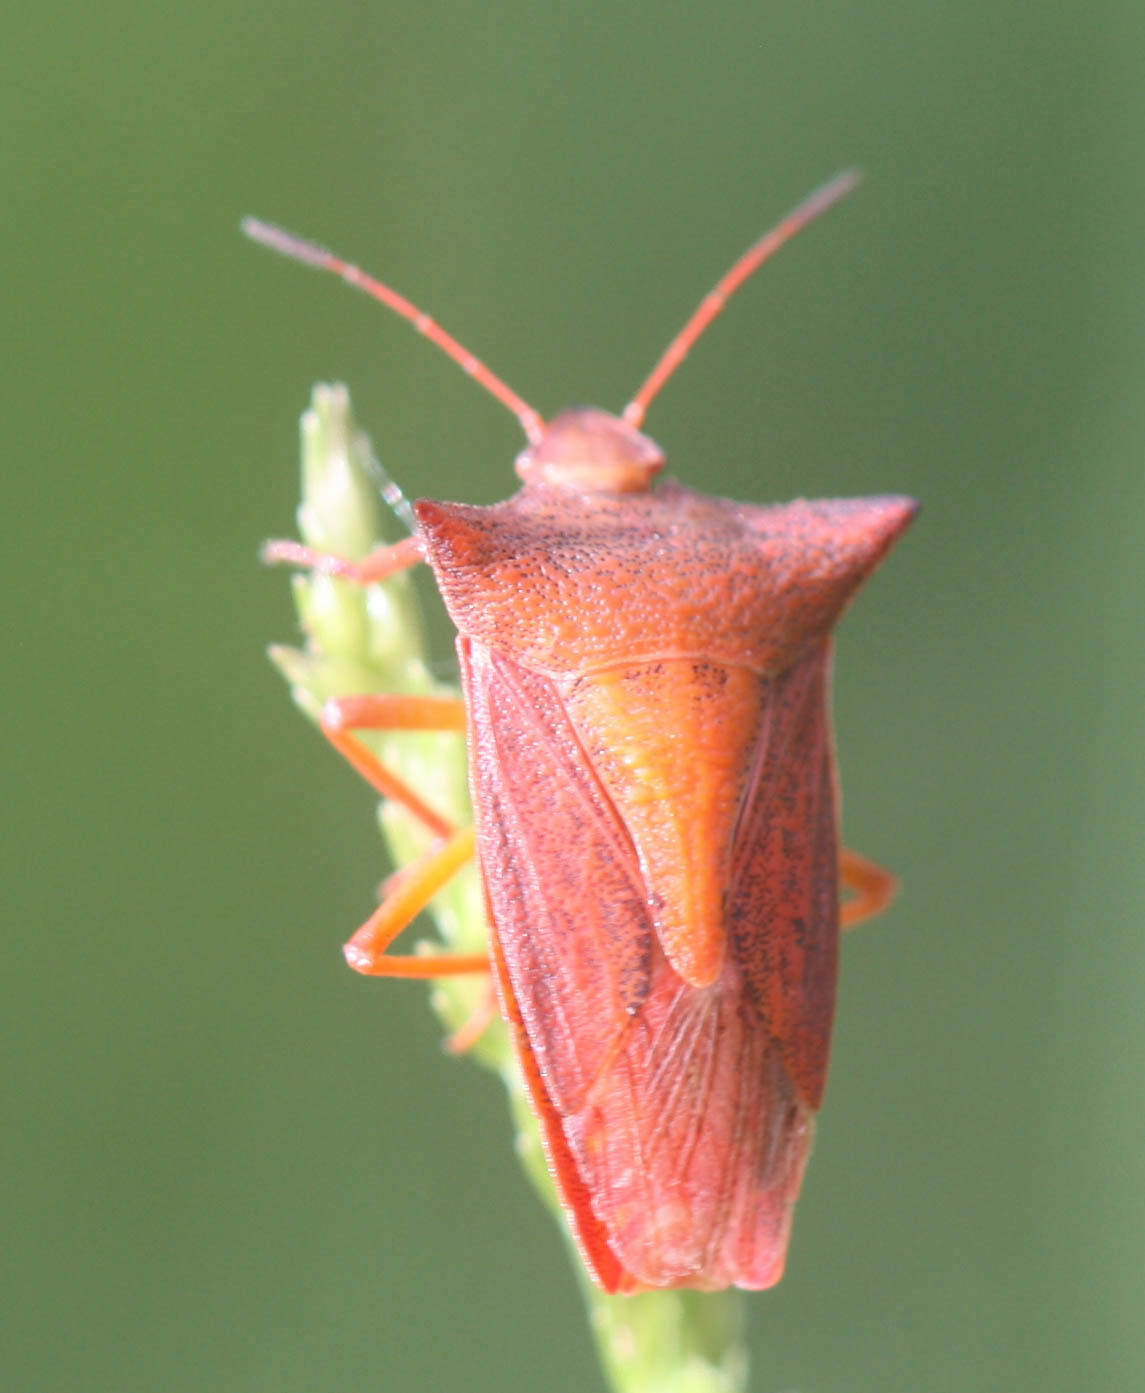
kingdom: Animalia
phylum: Arthropoda
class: Insecta
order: Hemiptera
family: Pentatomidae
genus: Gonopsis
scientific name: Gonopsis
